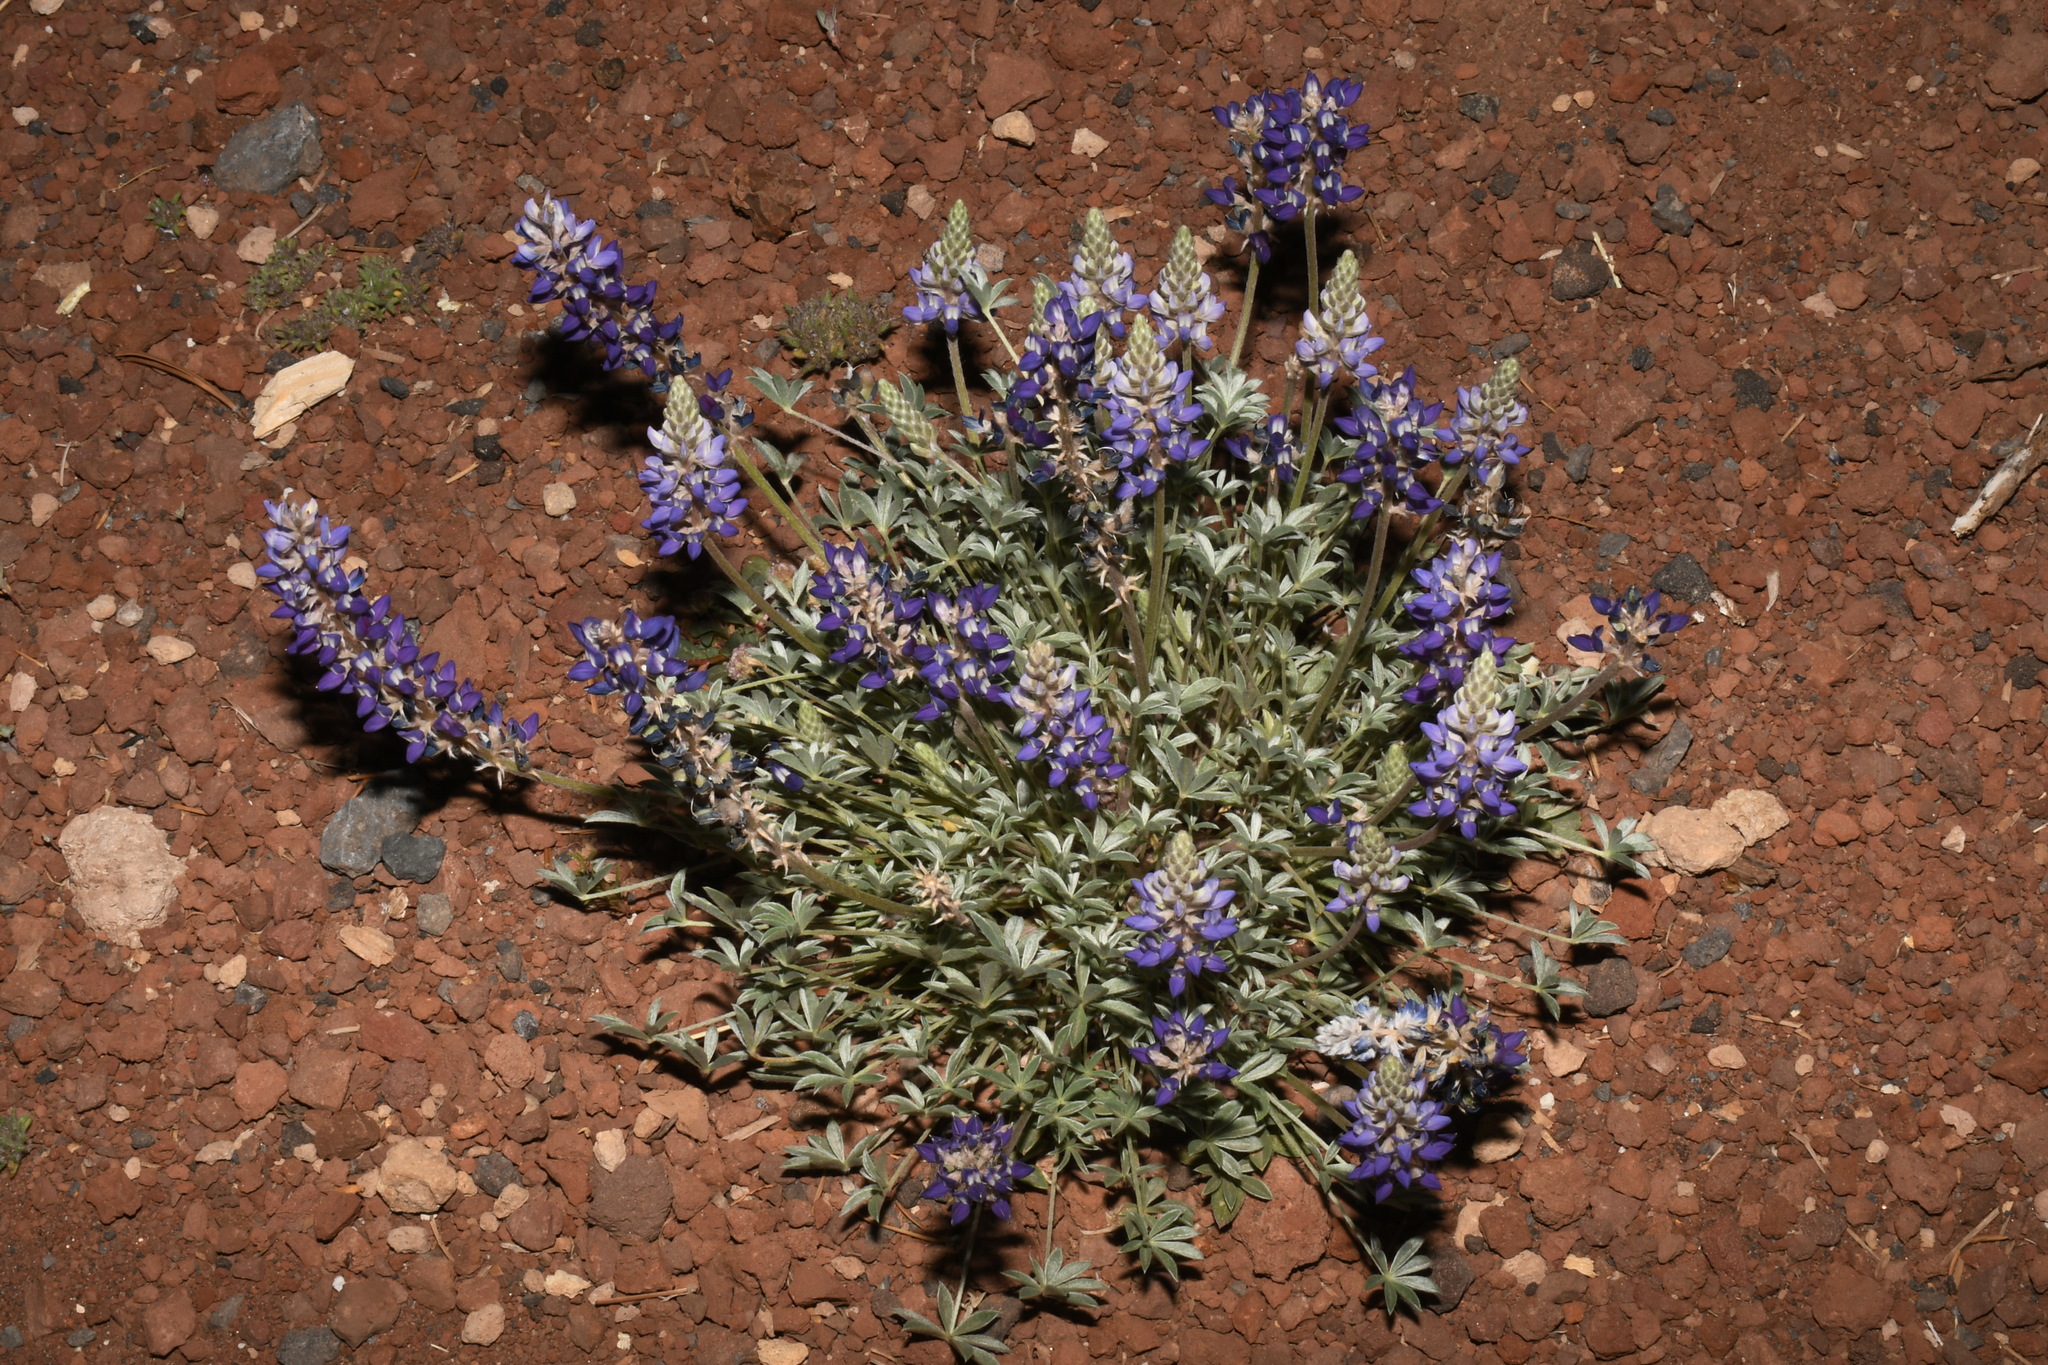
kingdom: Plantae
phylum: Tracheophyta
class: Magnoliopsida
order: Fabales
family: Fabaceae
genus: Lupinus
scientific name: Lupinus lepidus
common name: Prairie lupine
